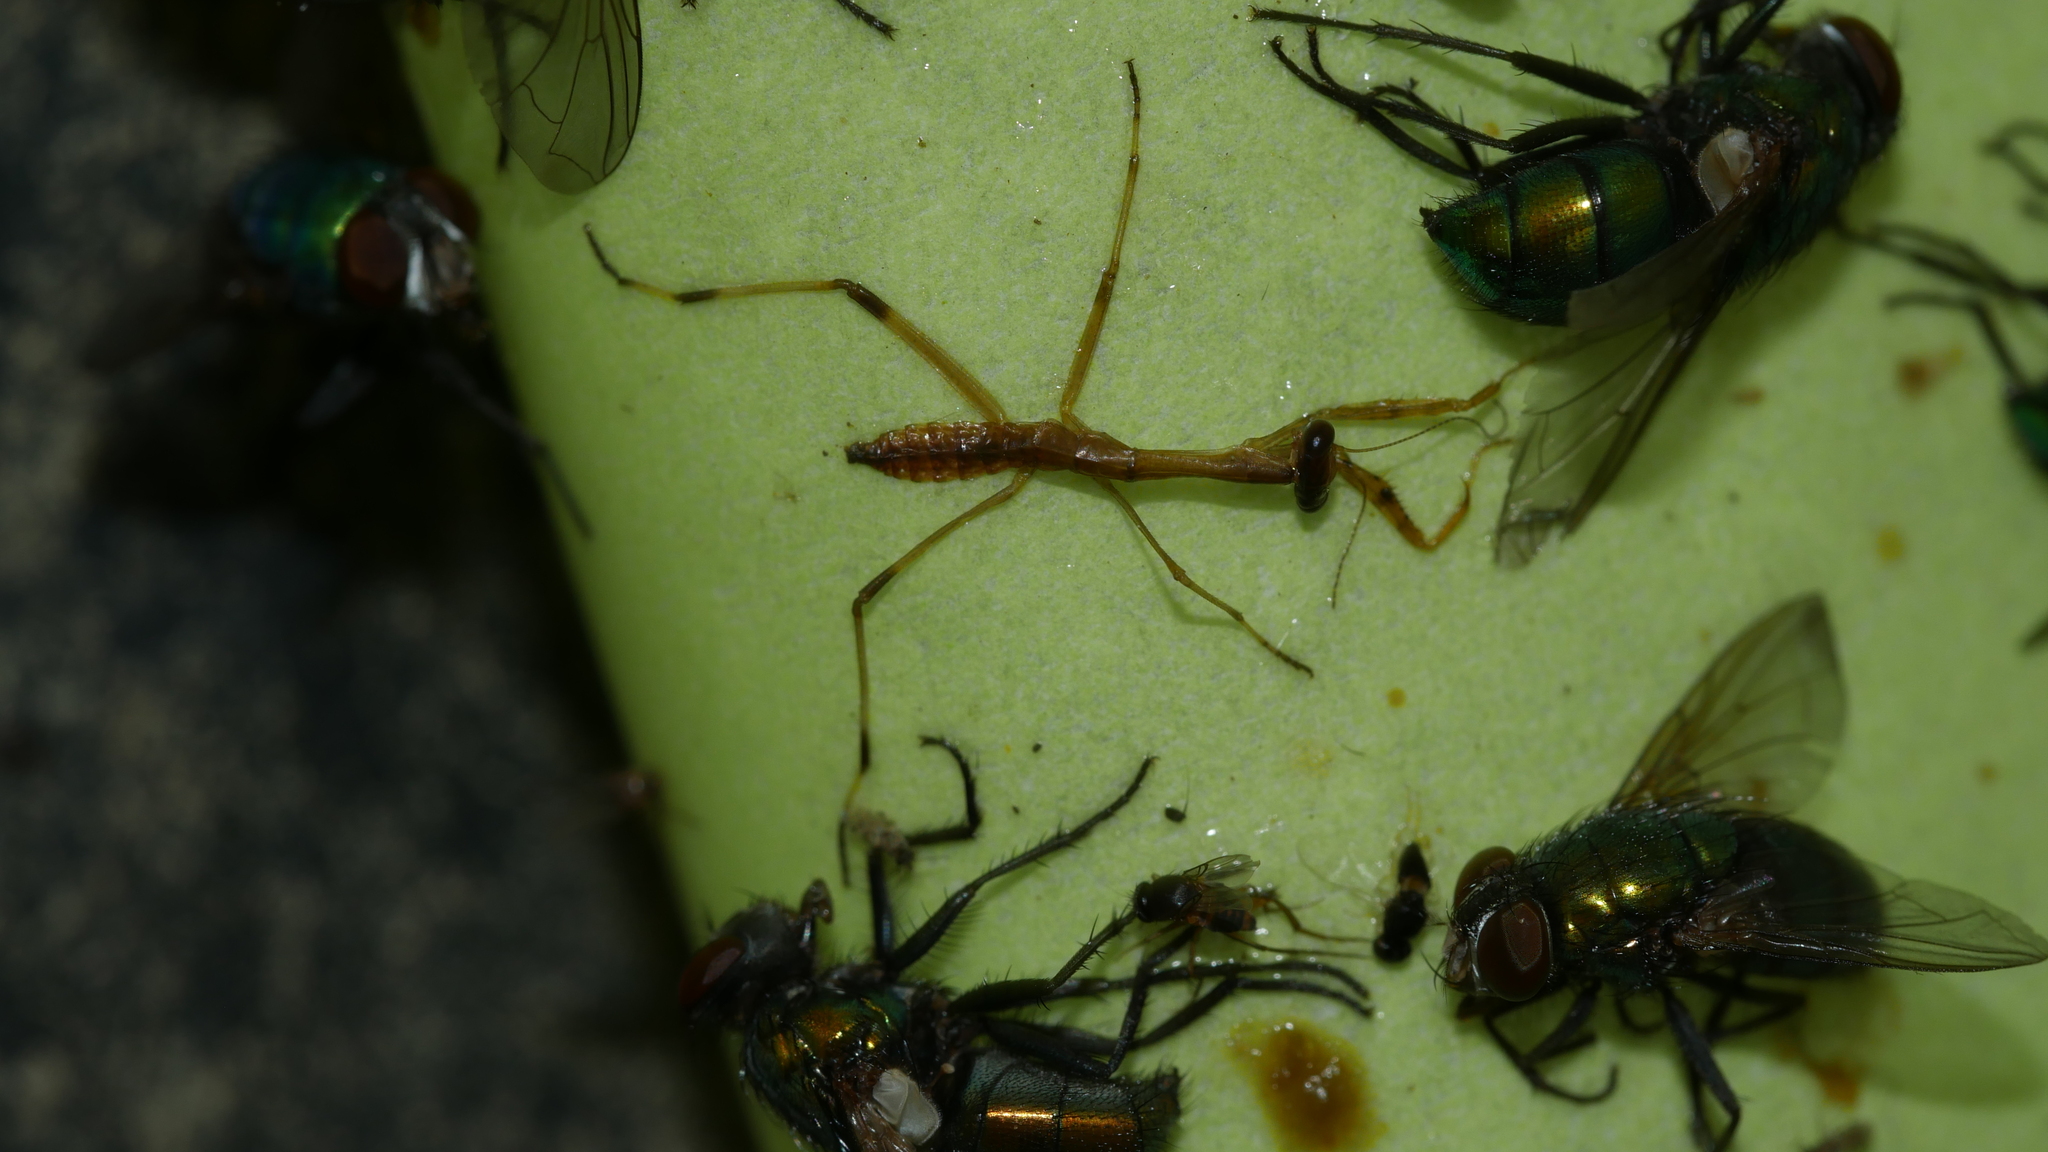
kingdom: Animalia
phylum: Arthropoda
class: Insecta
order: Mantodea
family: Mantidae
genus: Stagmomantis
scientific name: Stagmomantis carolina
